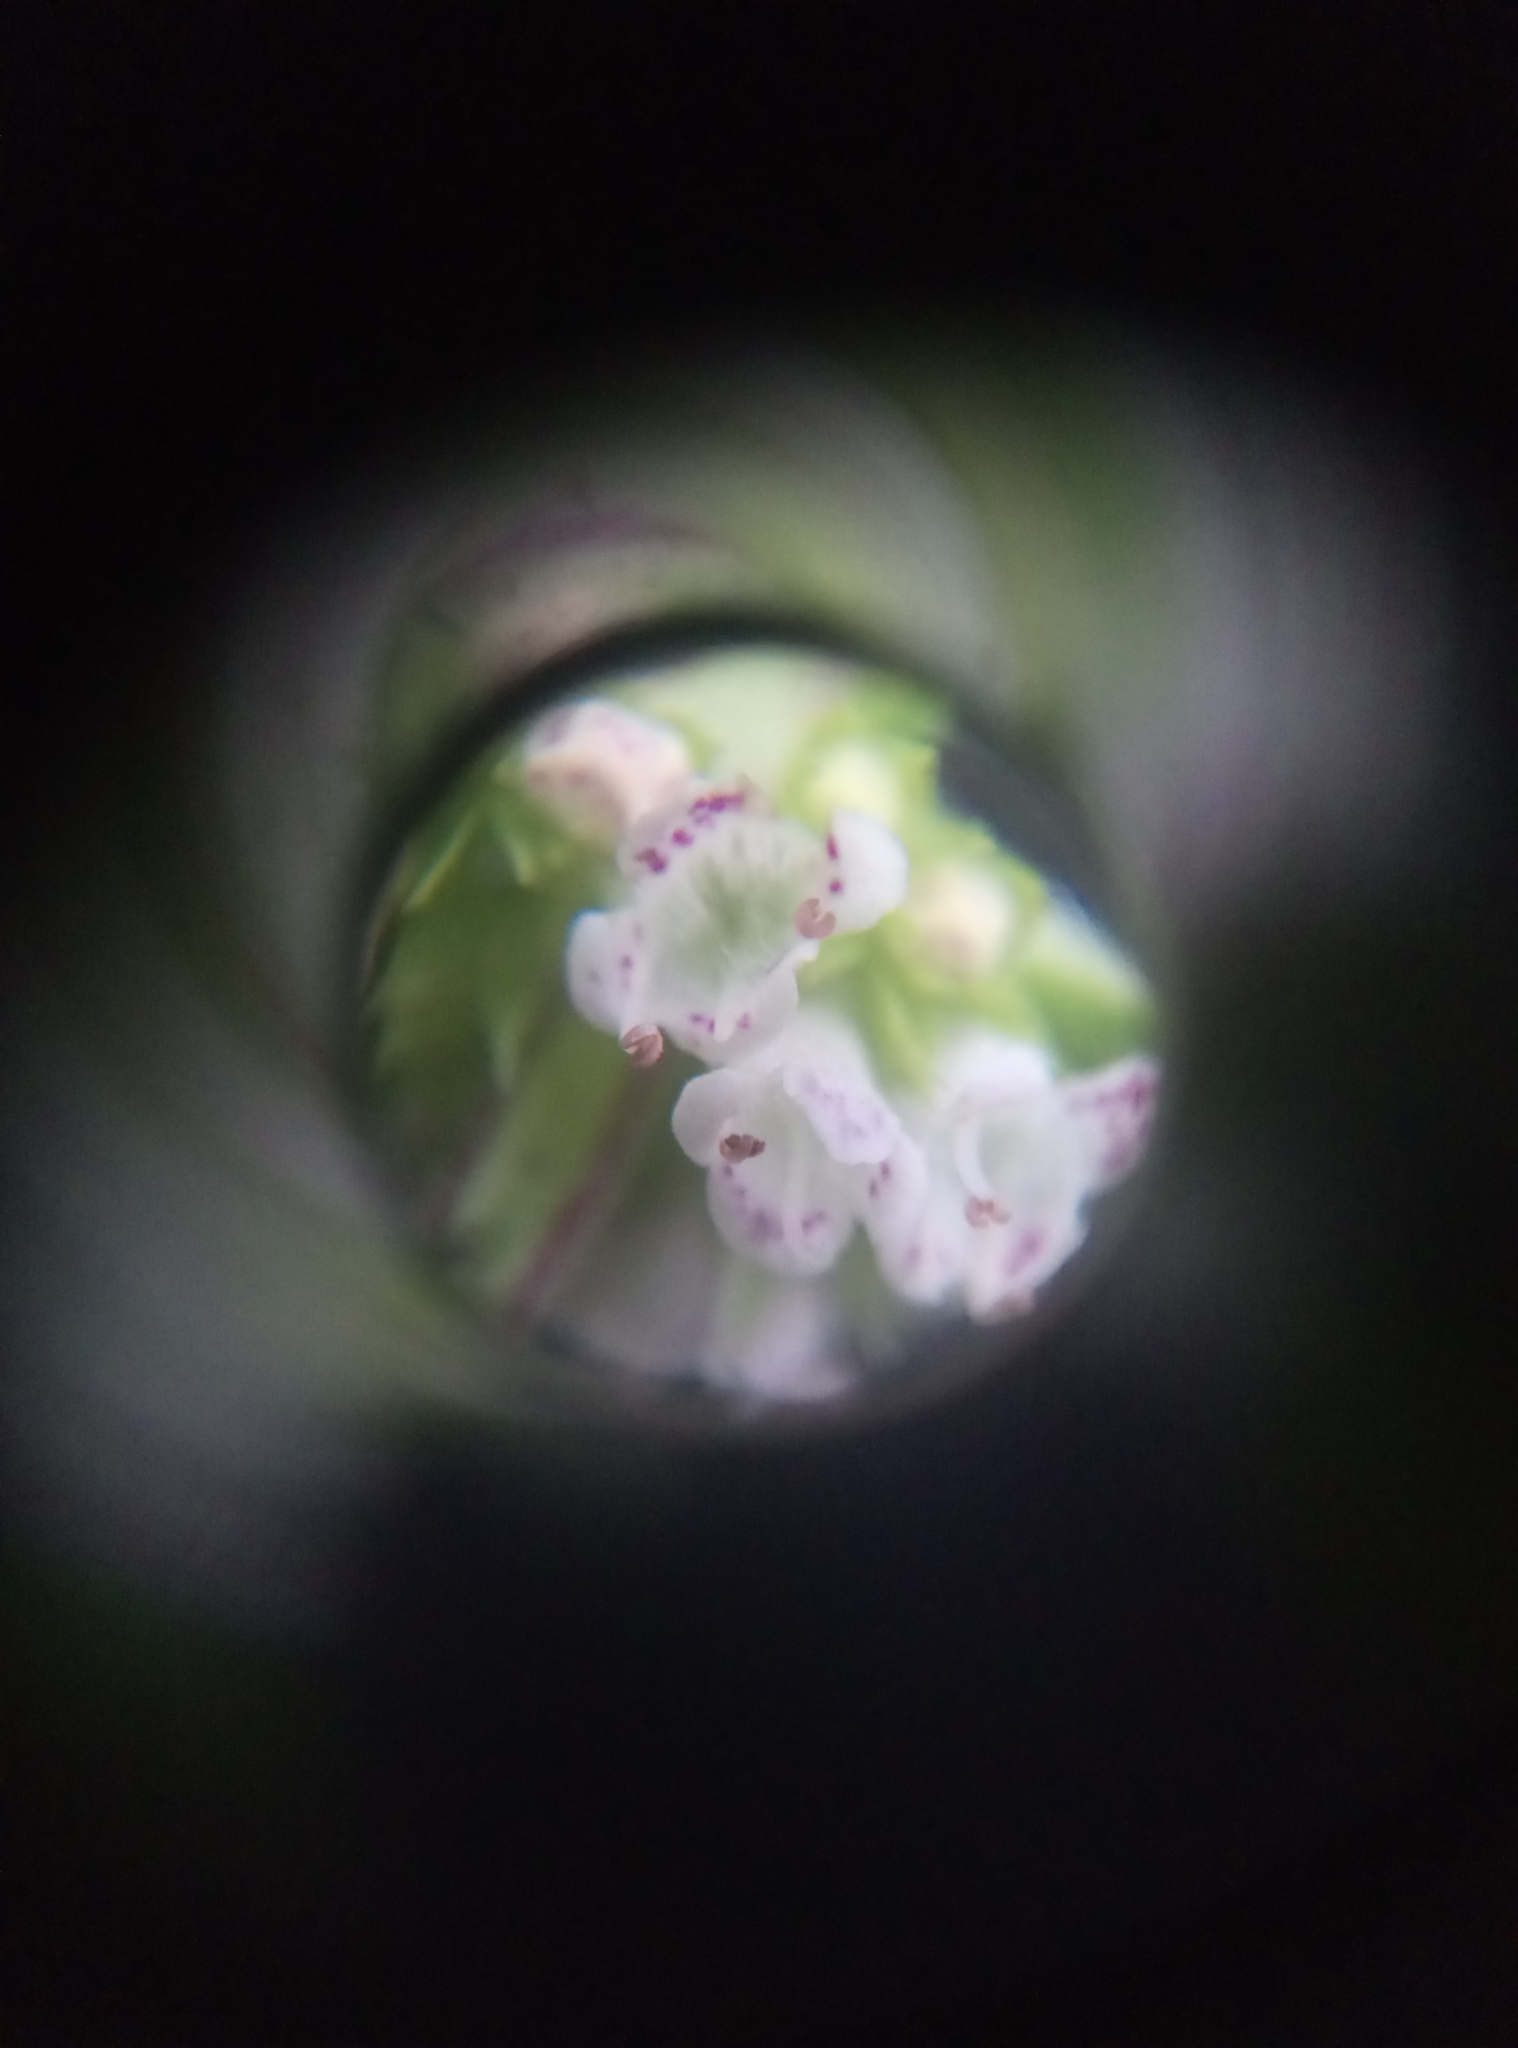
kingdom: Plantae
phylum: Tracheophyta
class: Magnoliopsida
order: Lamiales
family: Lamiaceae
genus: Lycopus
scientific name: Lycopus europaeus
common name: European bugleweed
